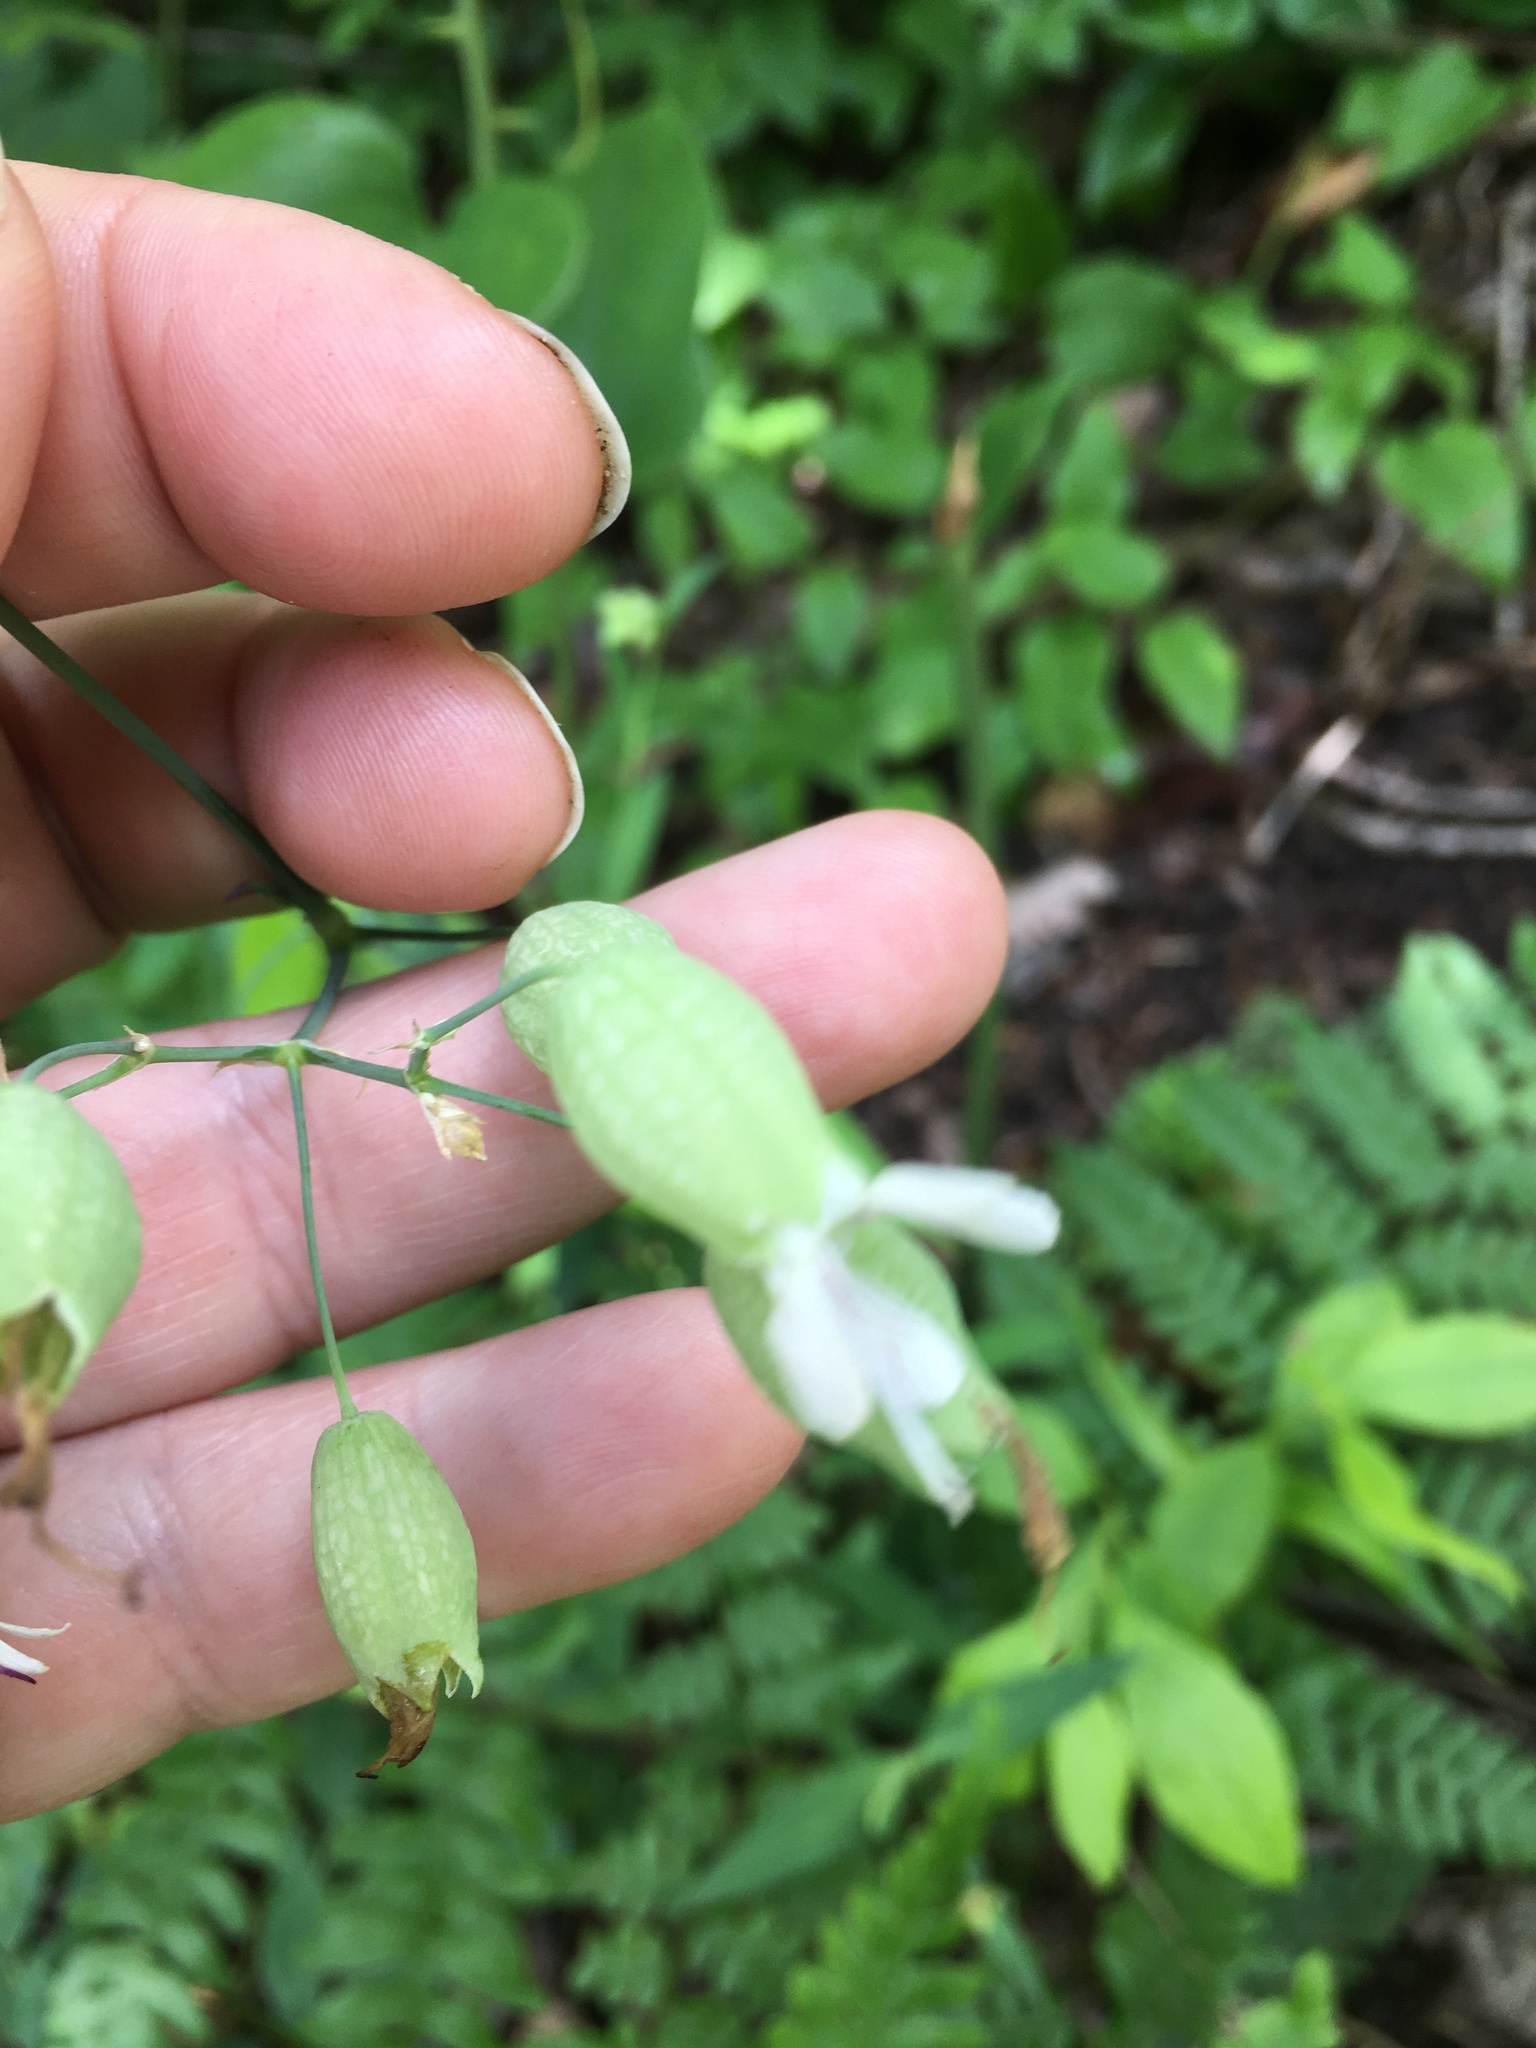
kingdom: Plantae
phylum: Tracheophyta
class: Magnoliopsida
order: Caryophyllales
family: Caryophyllaceae
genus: Silene
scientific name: Silene vulgaris
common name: Bladder campion
